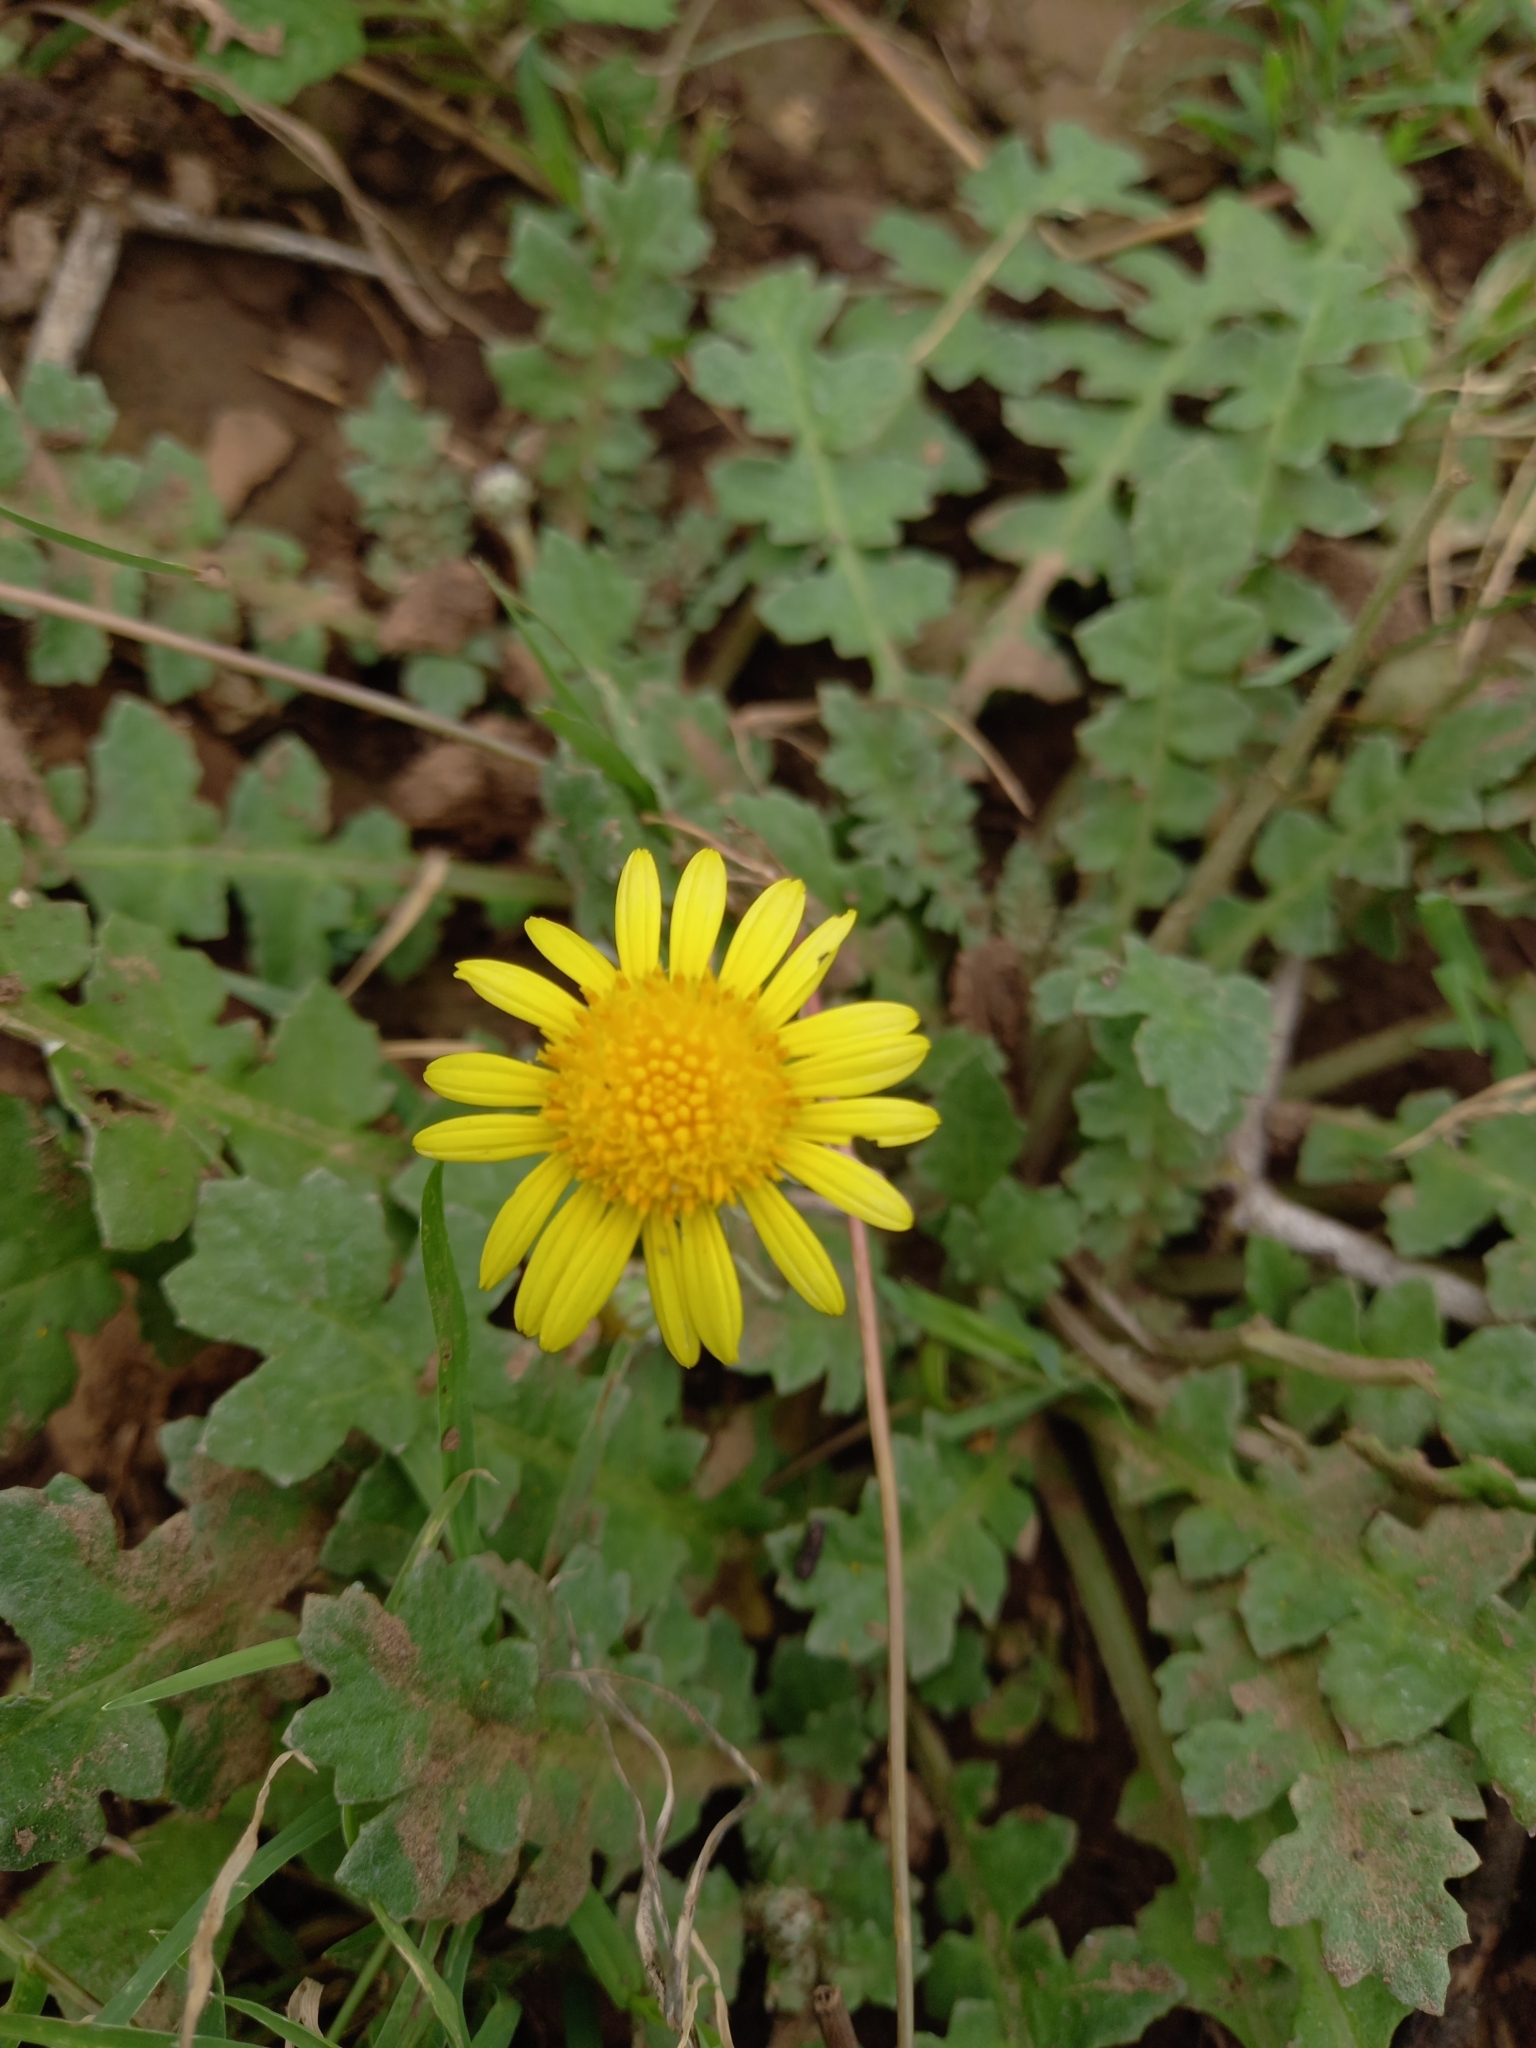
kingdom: Plantae
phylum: Tracheophyta
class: Magnoliopsida
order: Asterales
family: Asteraceae
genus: Arctotheca
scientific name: Arctotheca prostrata
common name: Capeweed
